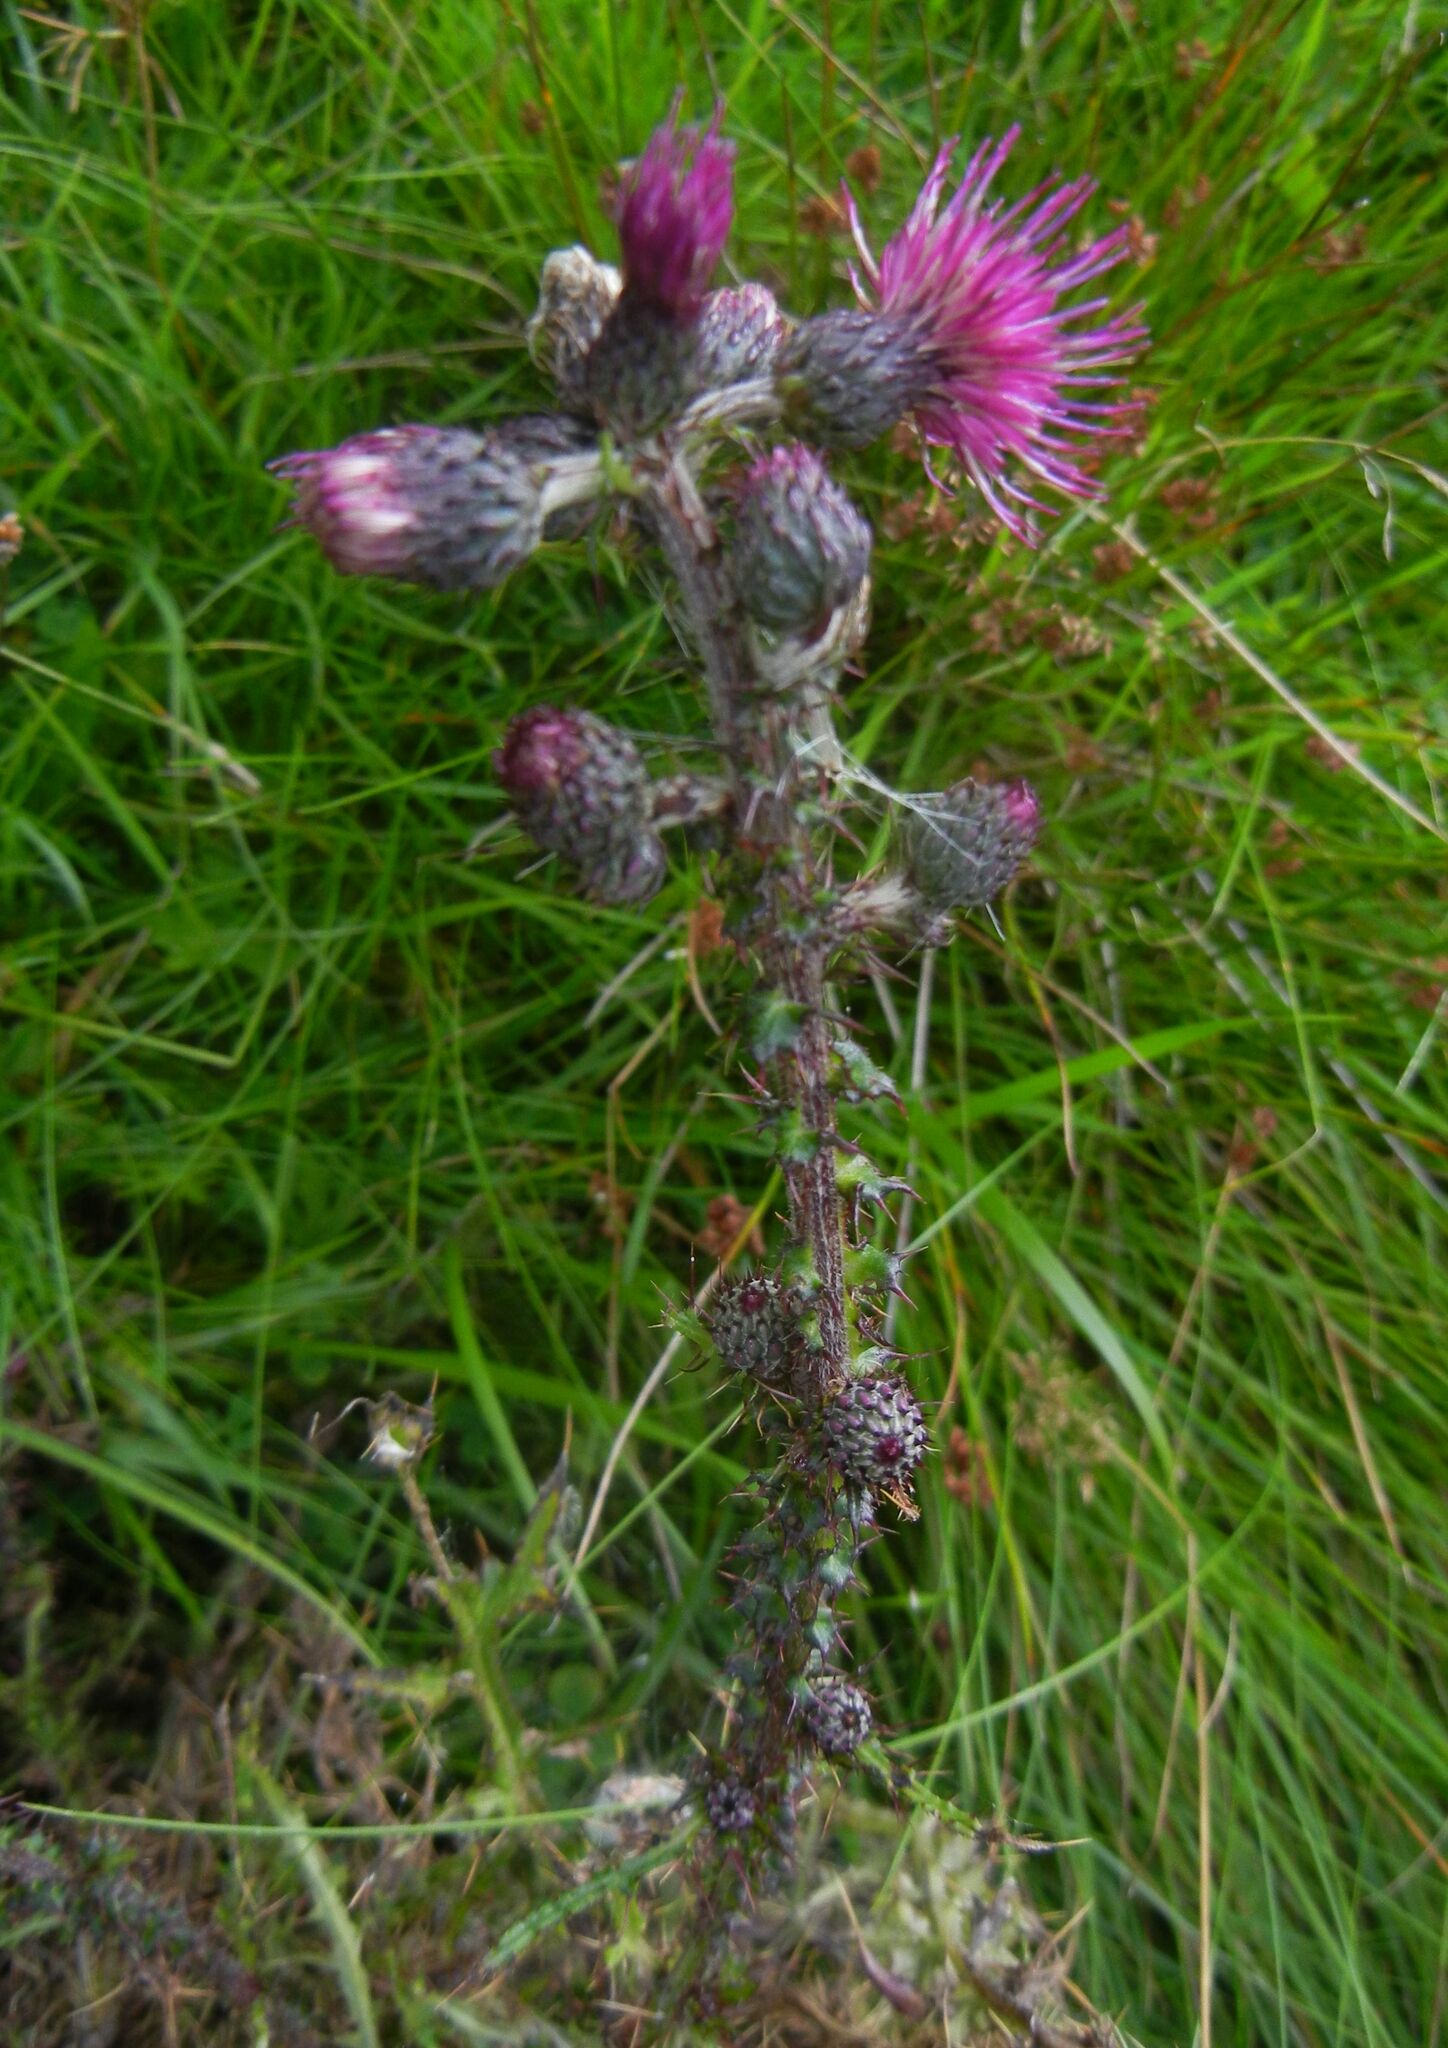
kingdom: Plantae
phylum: Tracheophyta
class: Magnoliopsida
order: Asterales
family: Asteraceae
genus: Cirsium
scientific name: Cirsium palustre
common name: Marsh thistle
